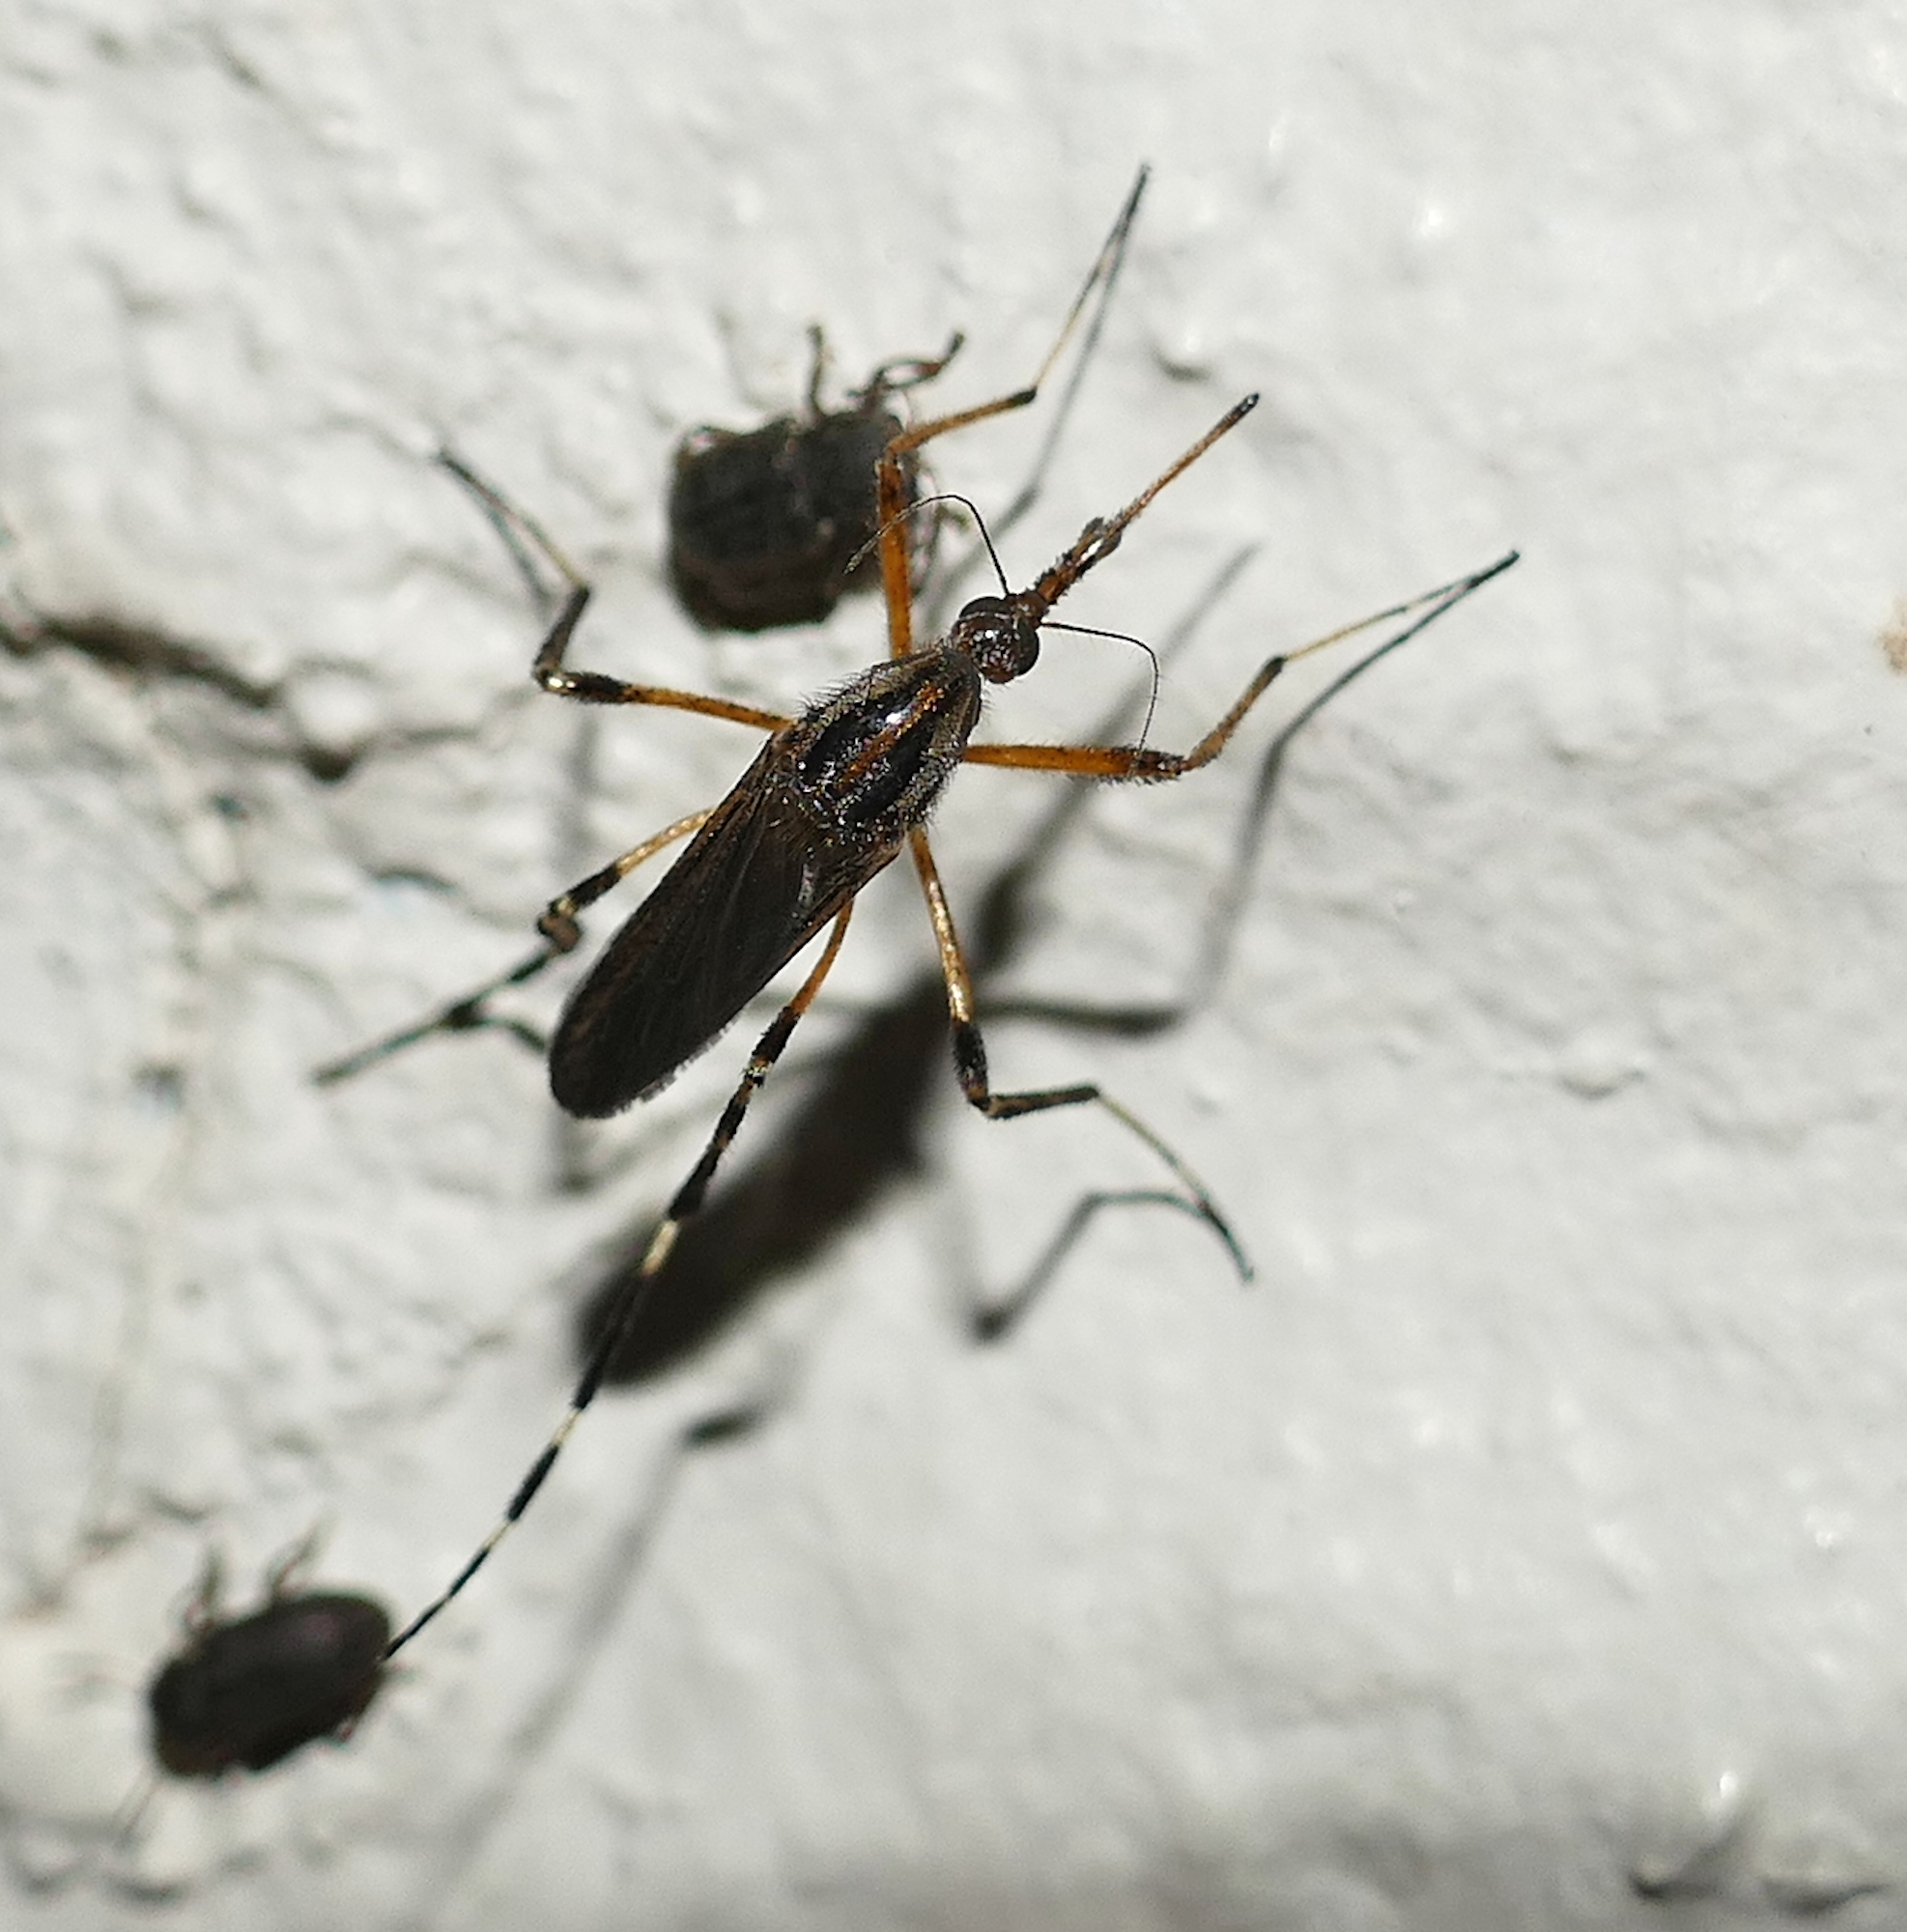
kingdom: Animalia
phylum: Arthropoda
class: Insecta
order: Diptera
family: Culicidae
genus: Psorophora
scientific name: Psorophora ciliata
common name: Gallinipper
